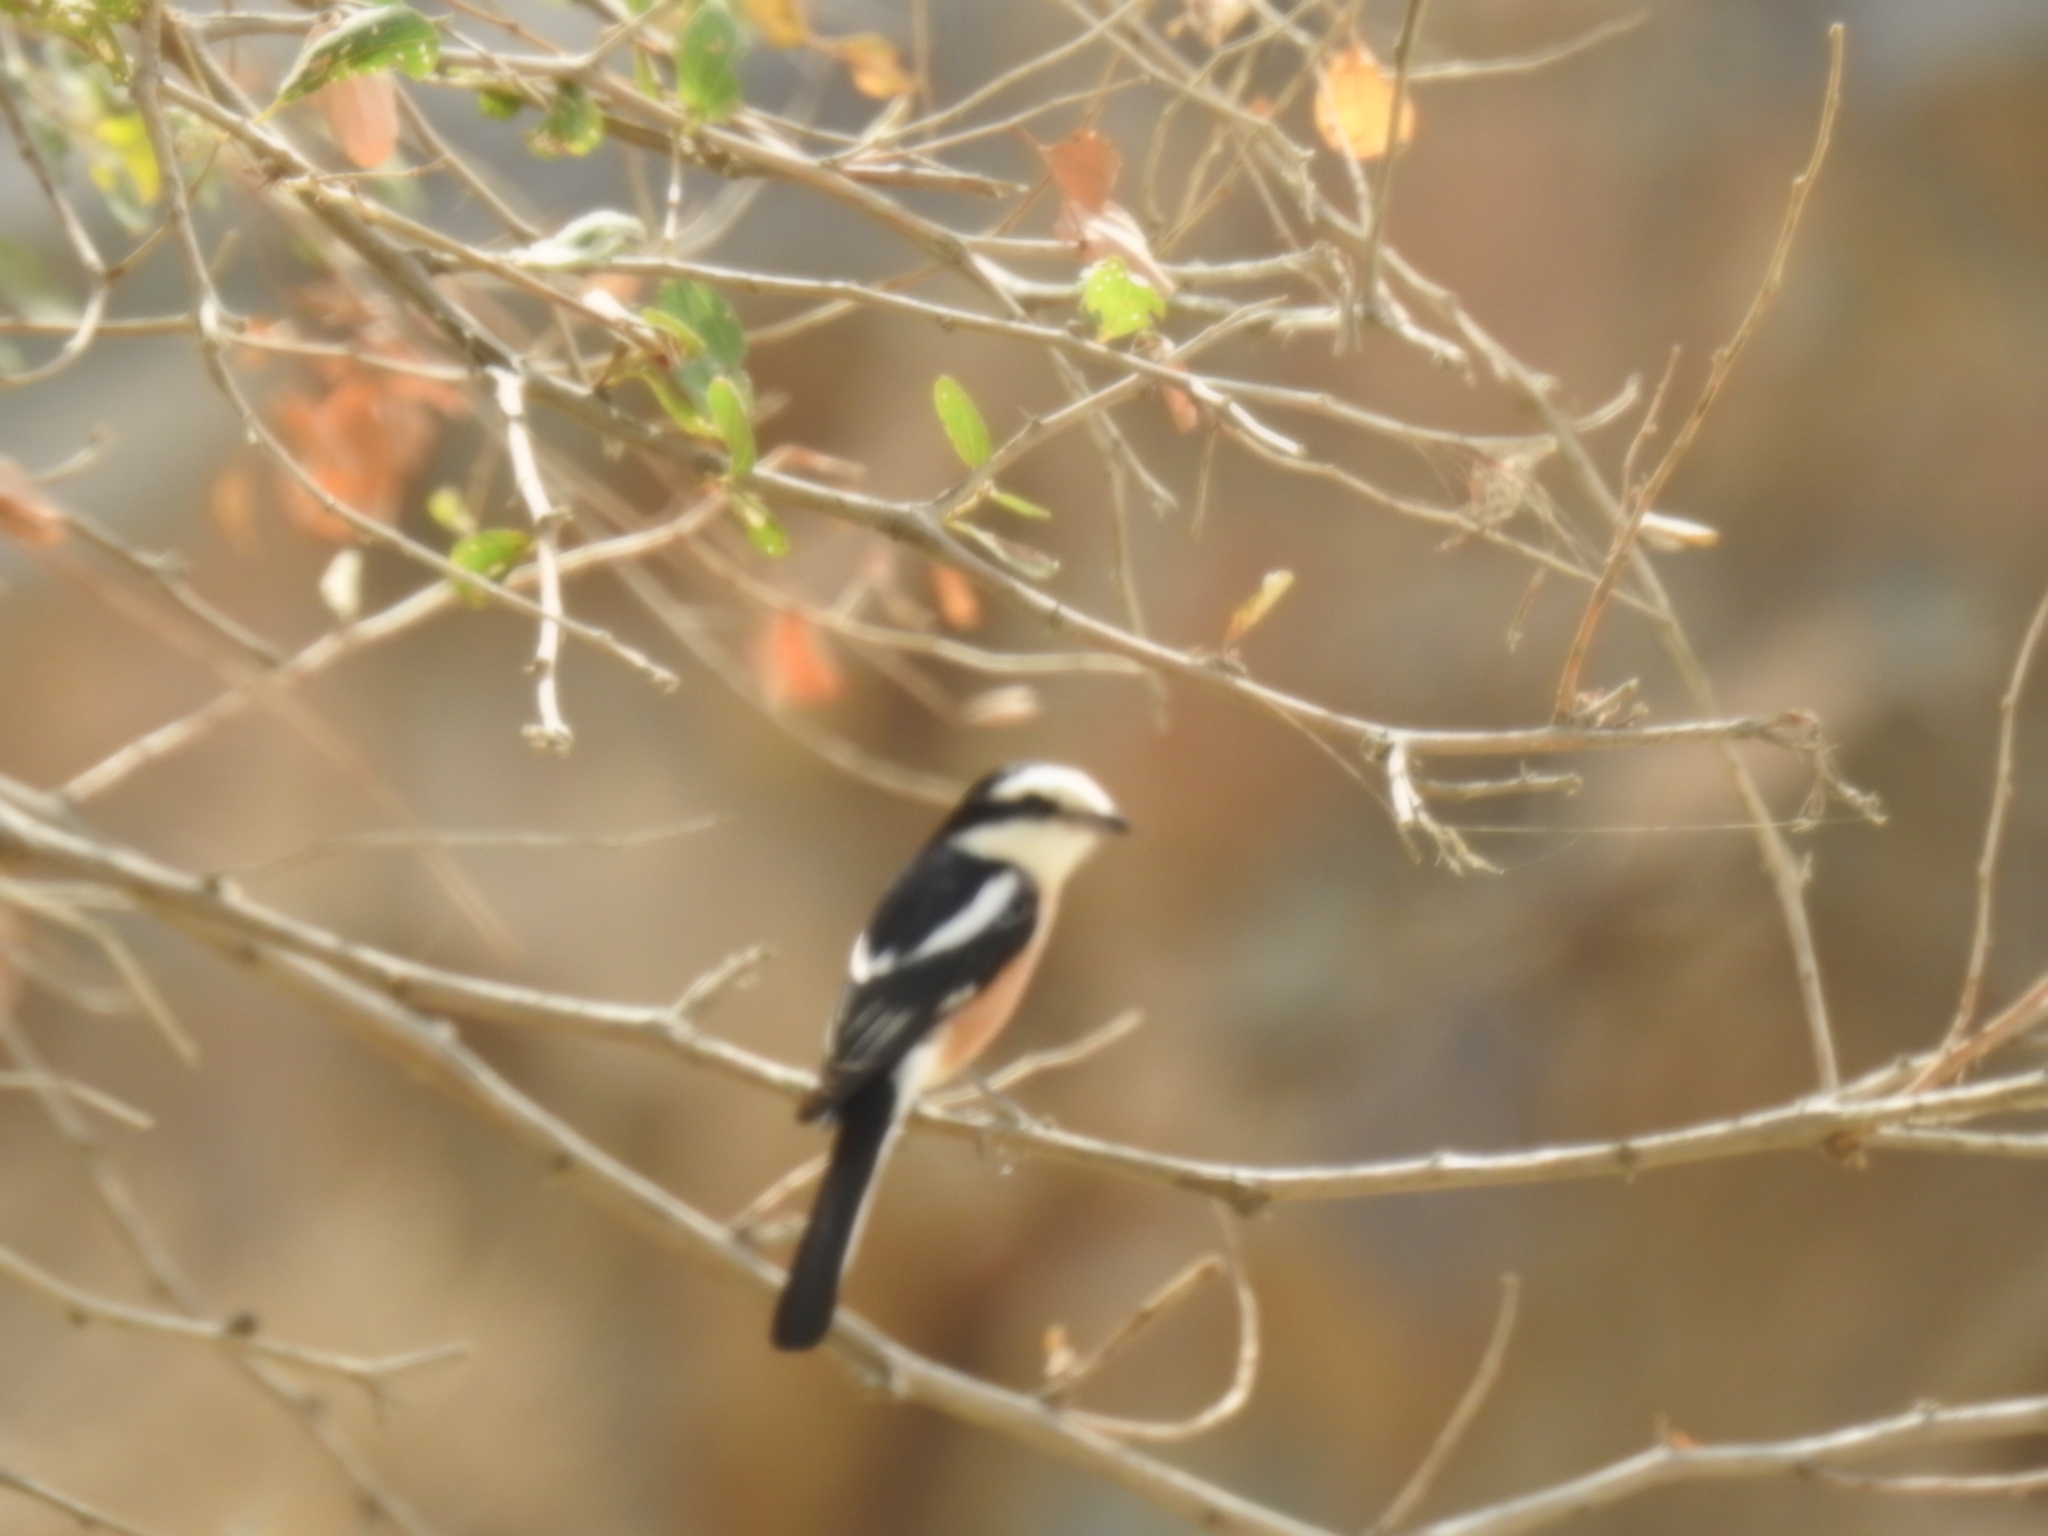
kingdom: Animalia
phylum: Chordata
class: Aves
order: Passeriformes
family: Laniidae
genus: Lanius
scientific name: Lanius nubicus
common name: Masked shrike
